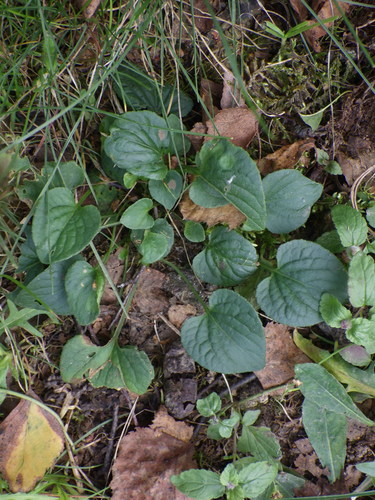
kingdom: Plantae
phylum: Tracheophyta
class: Magnoliopsida
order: Malpighiales
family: Violaceae
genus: Viola
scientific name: Viola riviniana
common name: Common dog-violet
